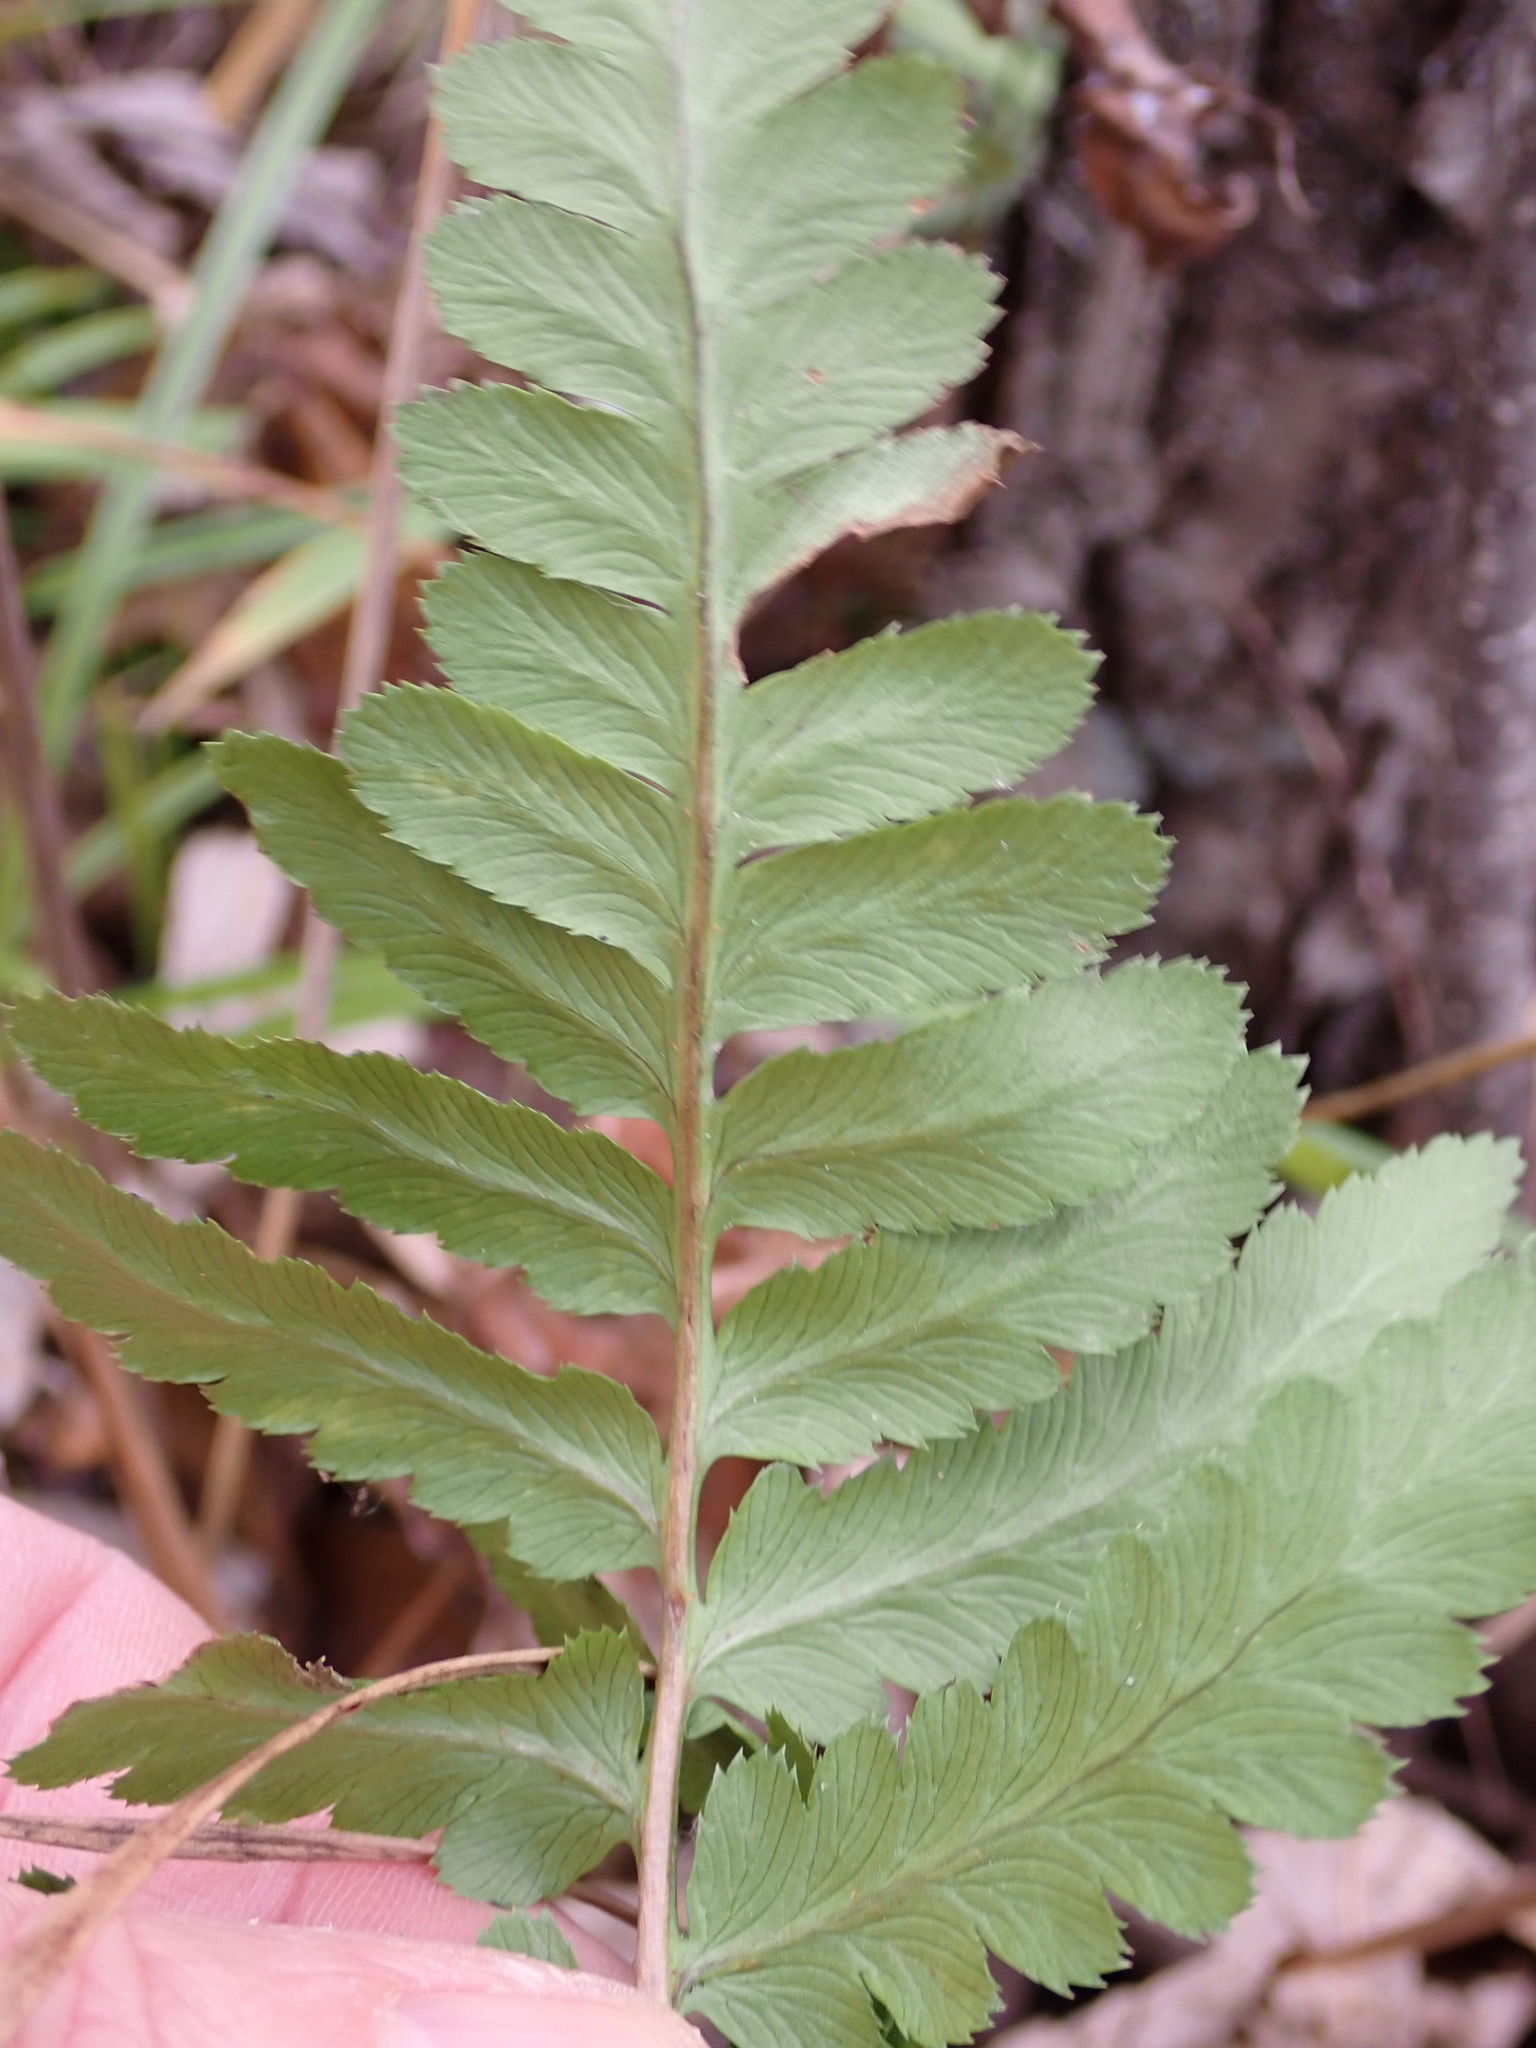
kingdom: Plantae
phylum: Tracheophyta
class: Polypodiopsida
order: Polypodiales
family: Dryopteridaceae
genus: Dryopteris
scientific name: Dryopteris cristata
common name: Crested wood fern
